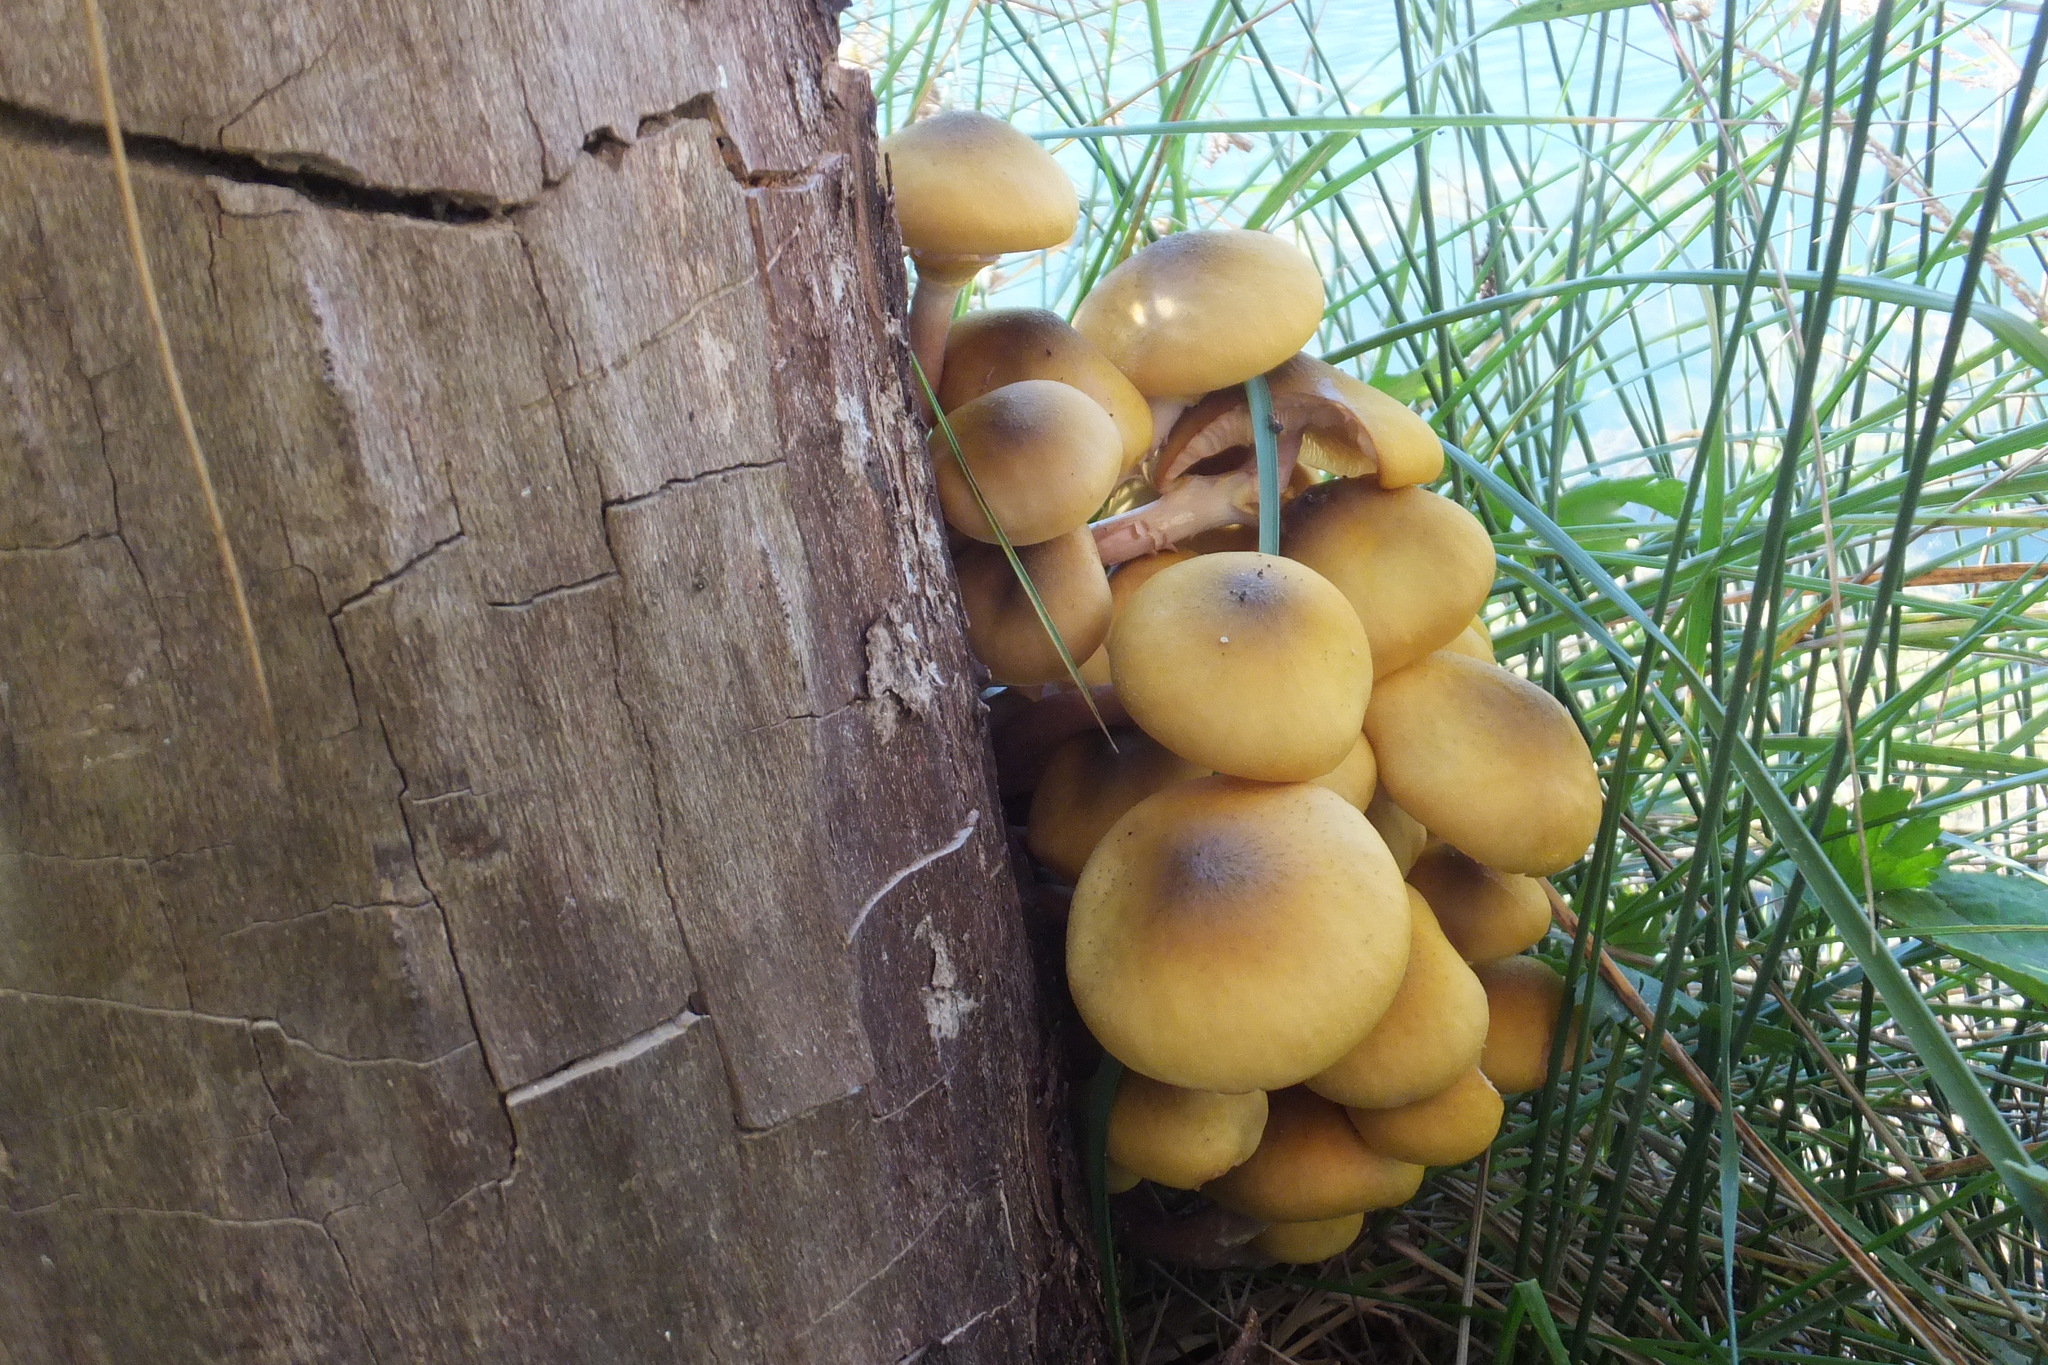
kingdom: Fungi
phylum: Basidiomycota
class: Agaricomycetes
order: Agaricales
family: Physalacriaceae
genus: Armillaria
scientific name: Armillaria mellea
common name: Honey fungus
